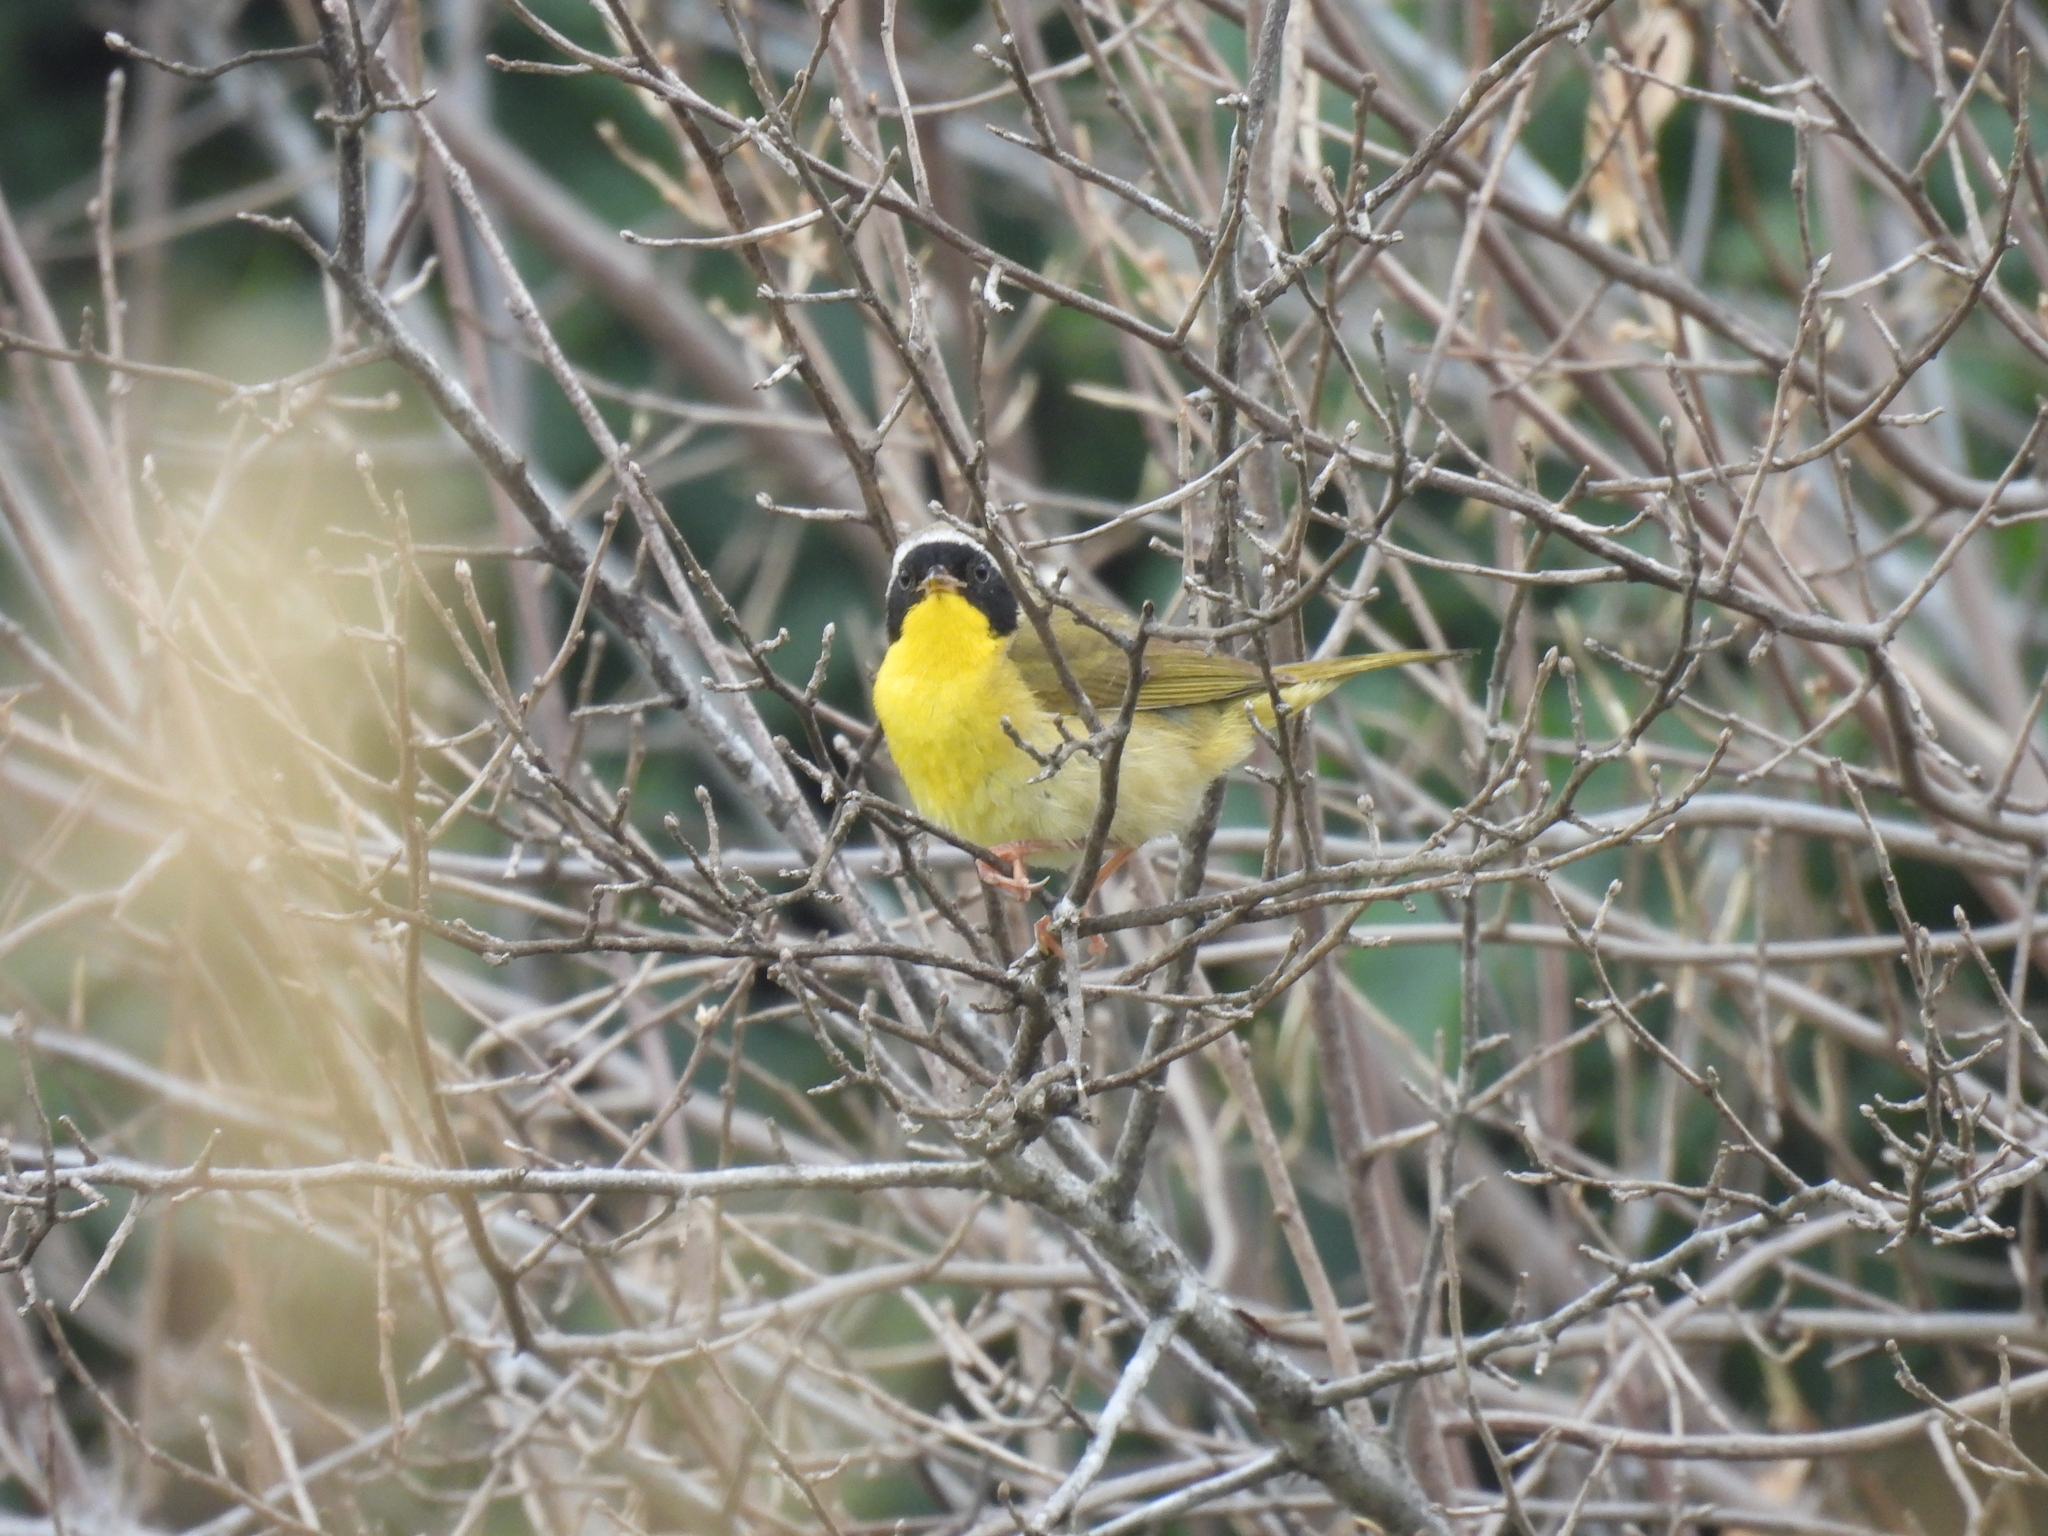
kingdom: Animalia
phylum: Chordata
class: Aves
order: Passeriformes
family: Parulidae
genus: Geothlypis
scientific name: Geothlypis trichas
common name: Common yellowthroat
